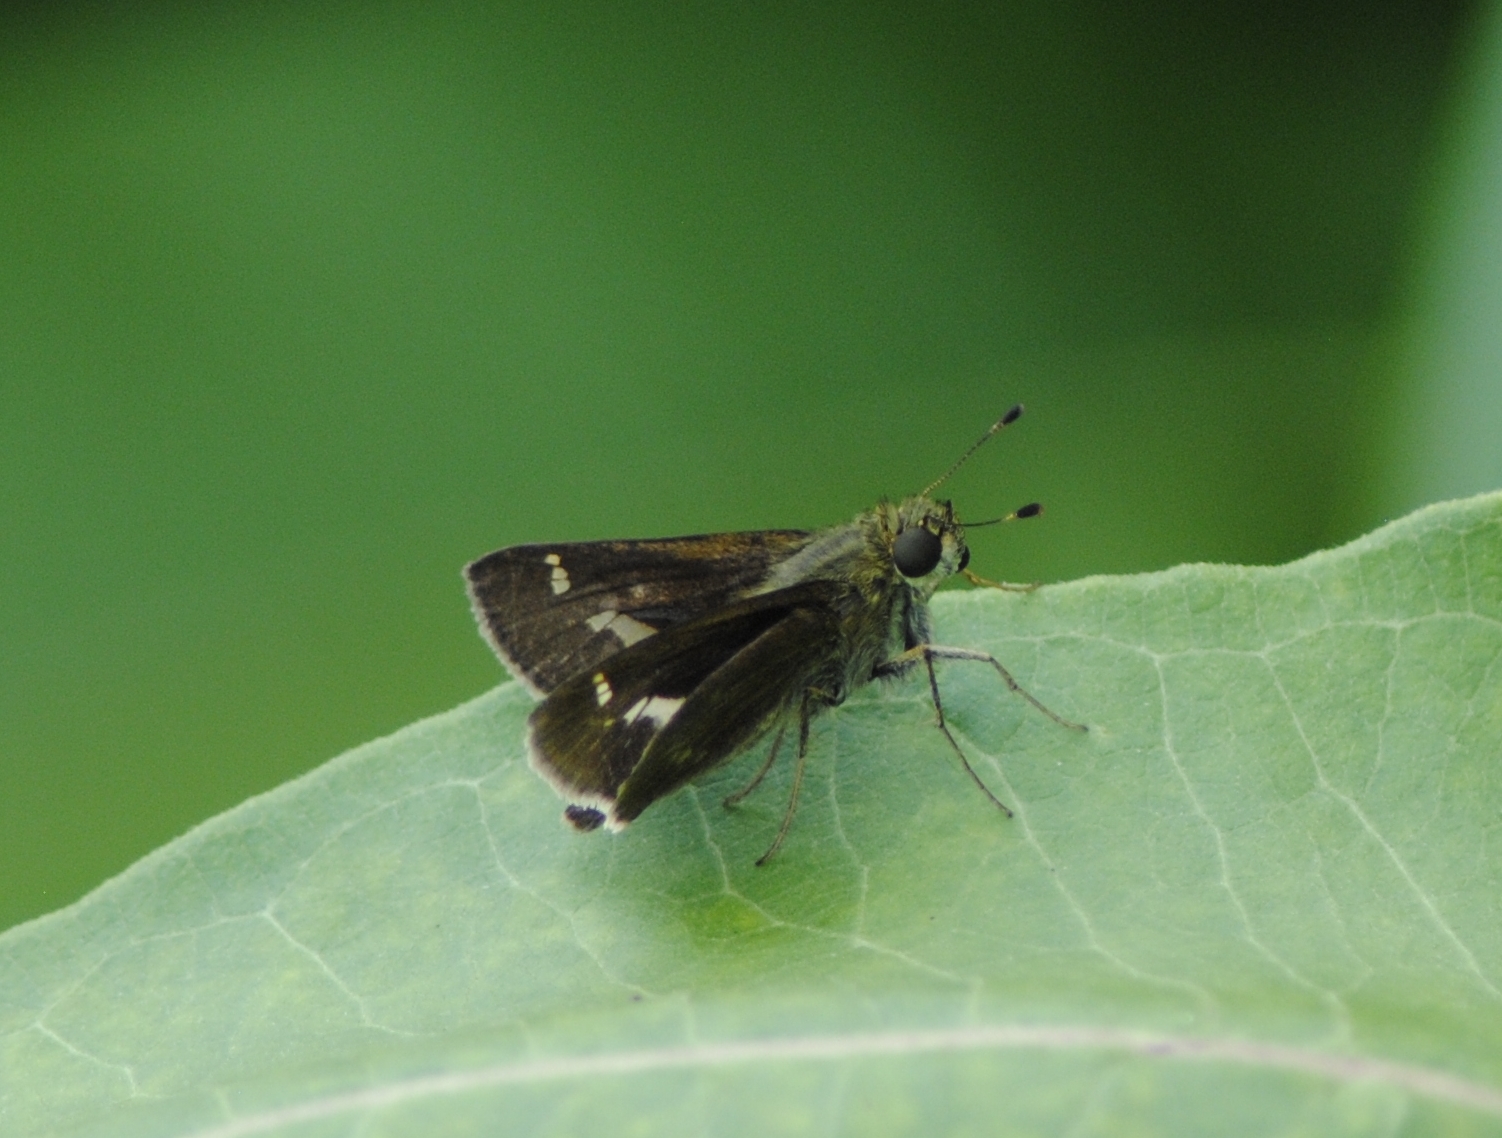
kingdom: Animalia
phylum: Arthropoda
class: Insecta
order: Lepidoptera
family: Hesperiidae
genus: Vernia
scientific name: Vernia verna
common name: Little glassywing
